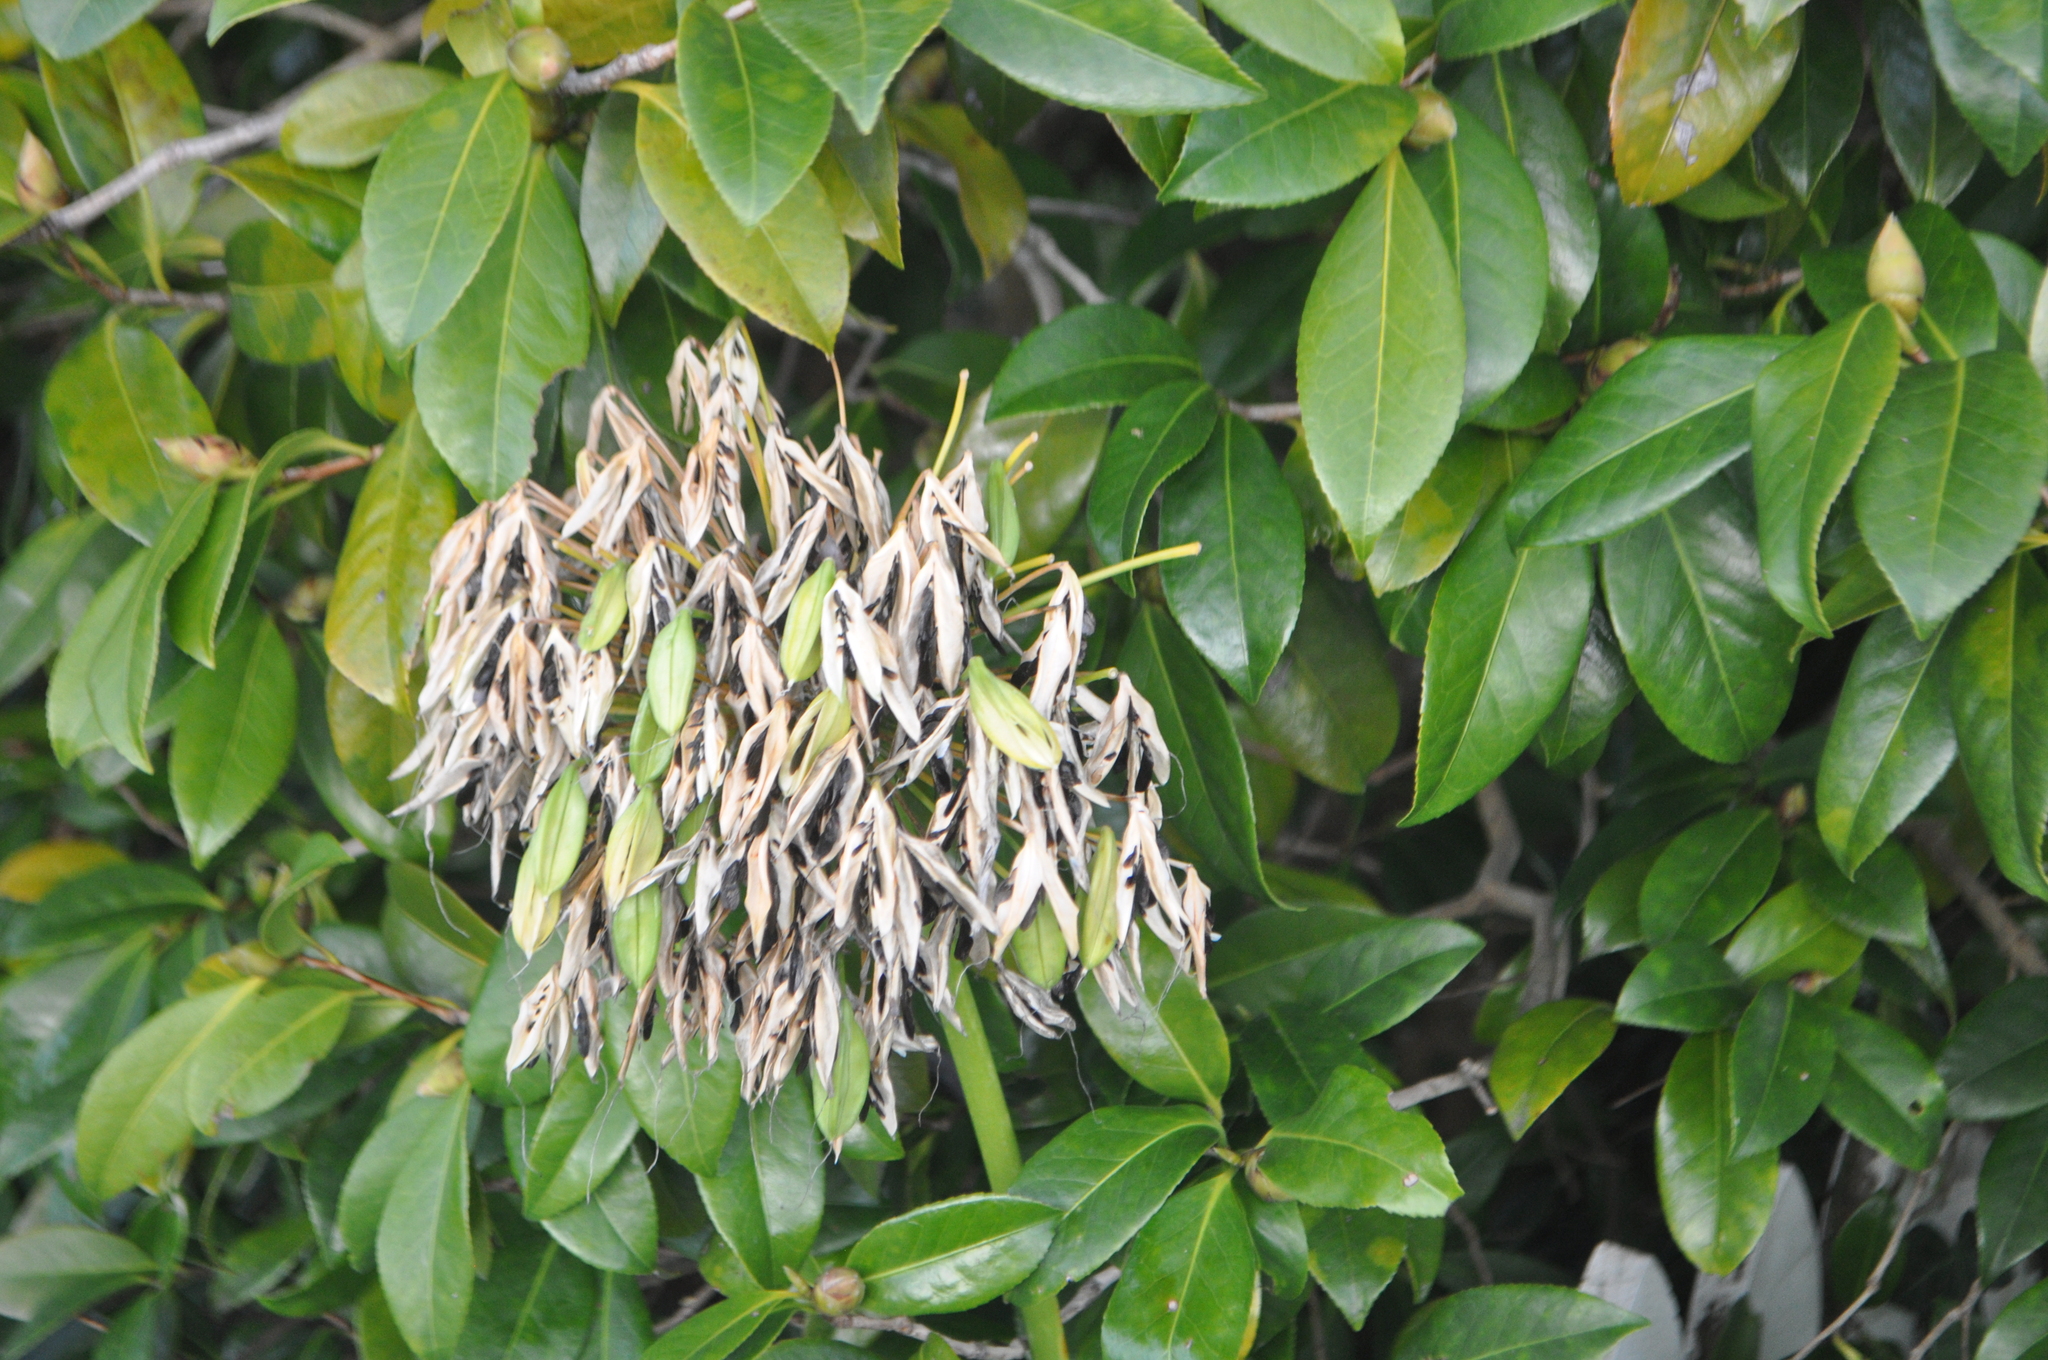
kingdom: Plantae
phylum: Tracheophyta
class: Liliopsida
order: Asparagales
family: Amaryllidaceae
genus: Agapanthus
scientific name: Agapanthus praecox
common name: African-lily
